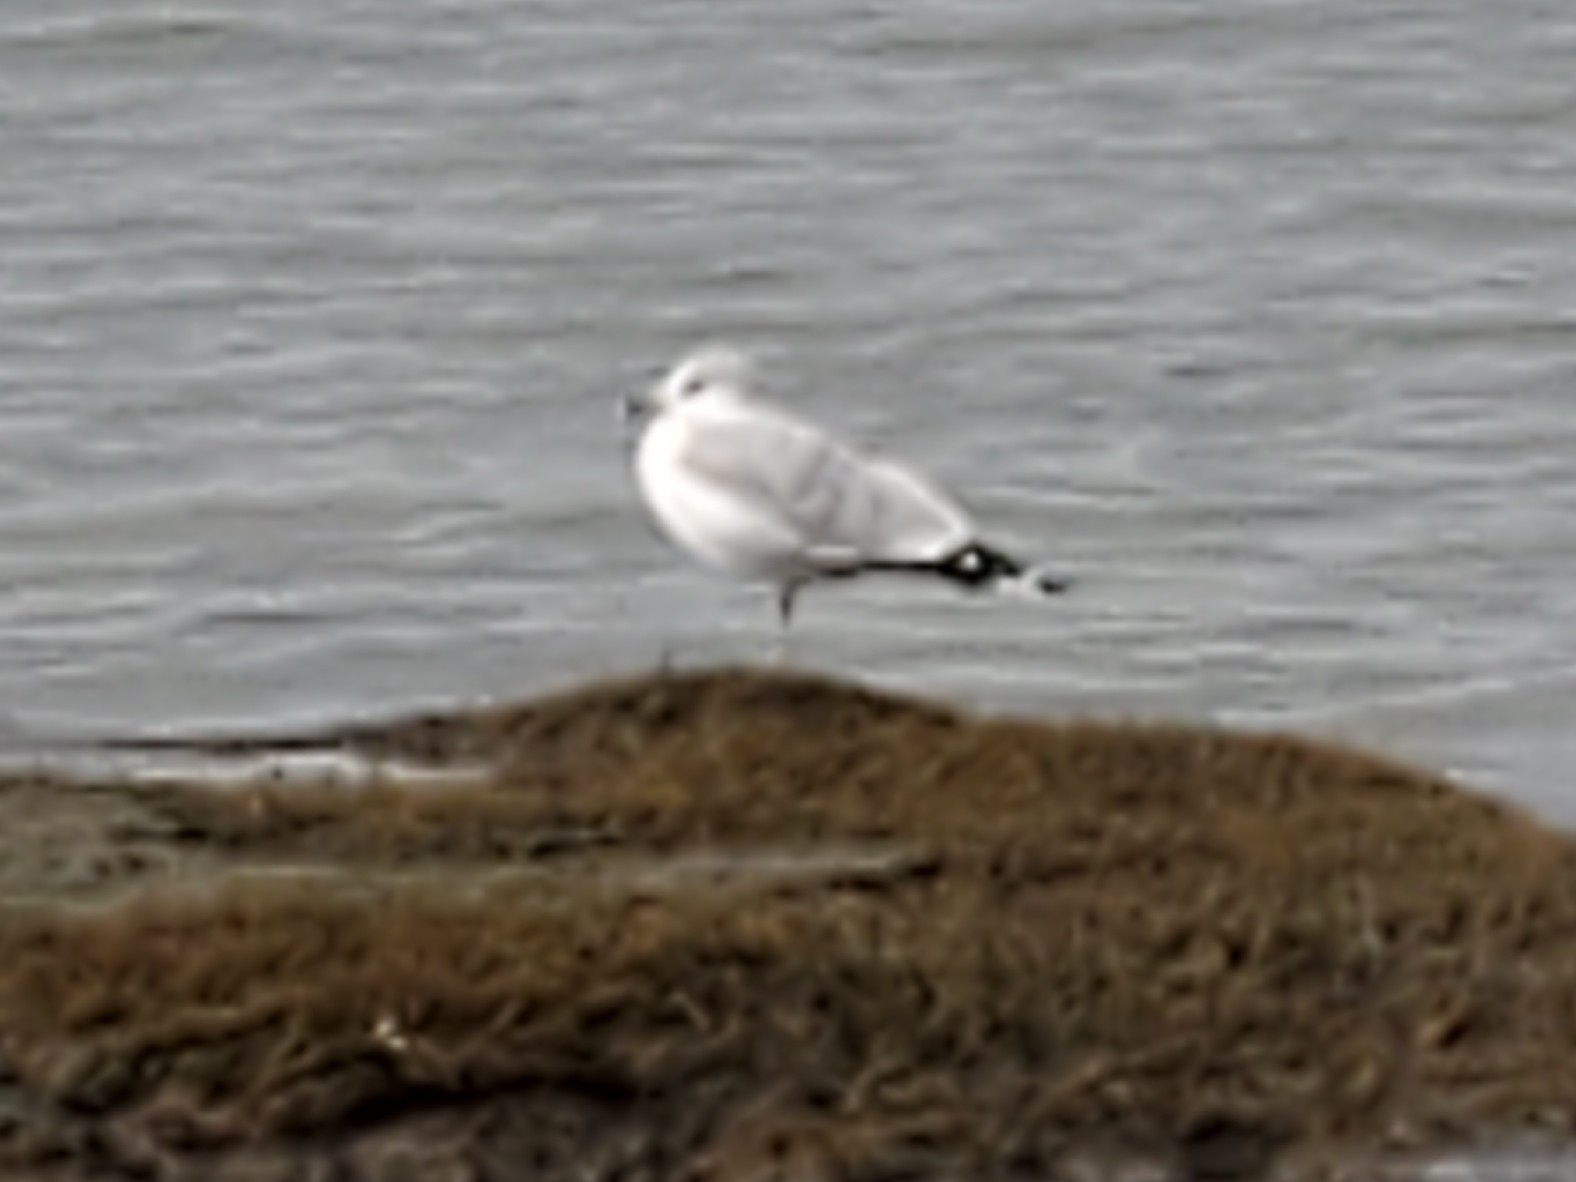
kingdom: Animalia
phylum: Chordata
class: Aves
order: Charadriiformes
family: Laridae
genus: Larus
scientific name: Larus delawarensis
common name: Ring-billed gull
